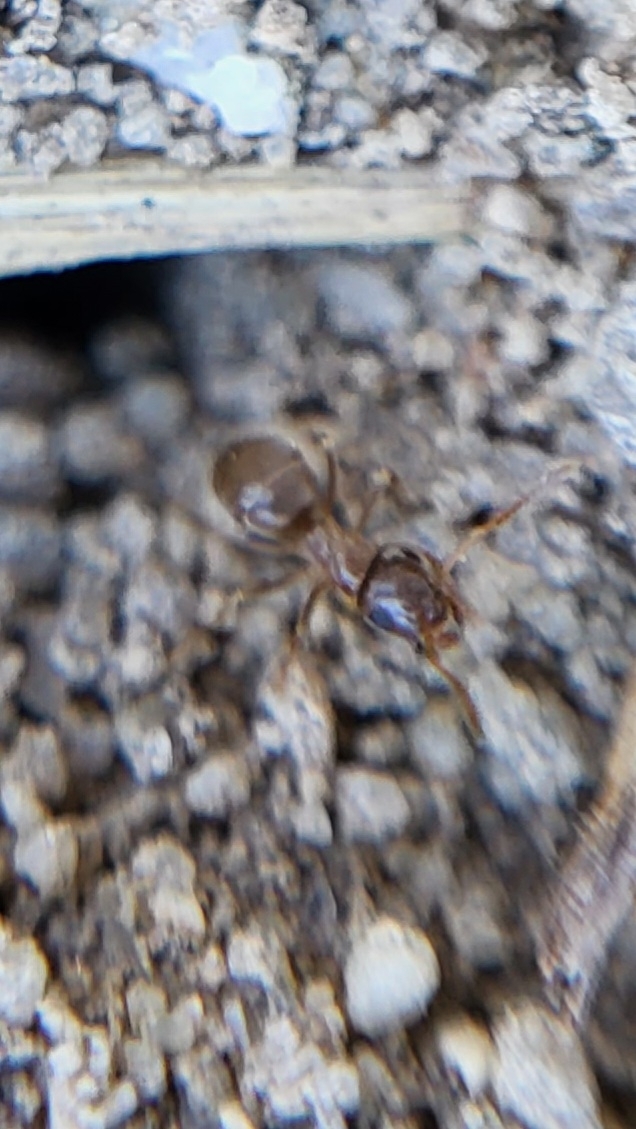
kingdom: Animalia
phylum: Arthropoda
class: Insecta
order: Hymenoptera
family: Formicidae
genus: Lasius
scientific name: Lasius neoniger
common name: Turfgrass ant
